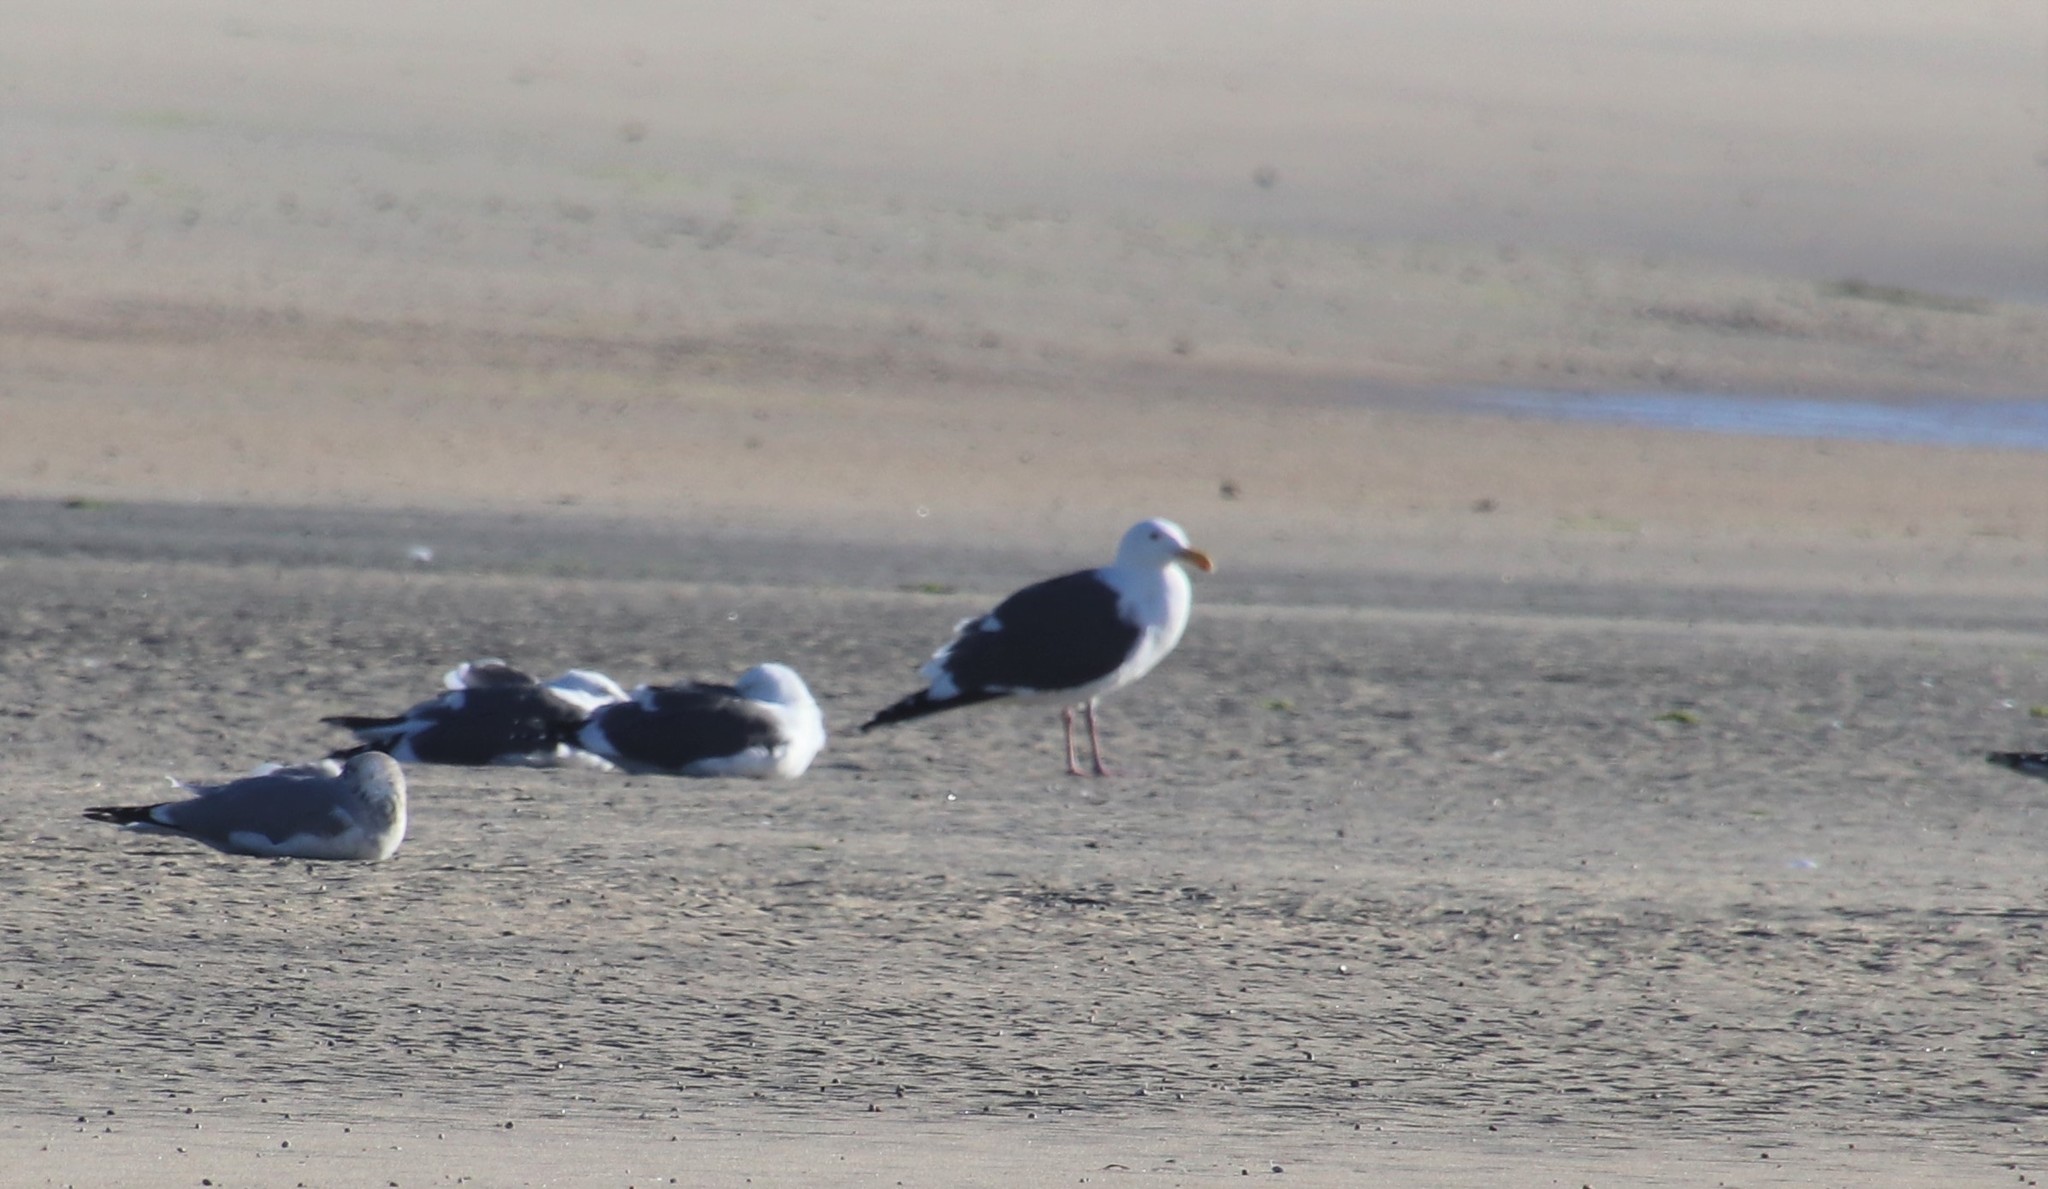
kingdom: Animalia
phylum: Chordata
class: Aves
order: Charadriiformes
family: Laridae
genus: Larus
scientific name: Larus occidentalis
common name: Western gull
